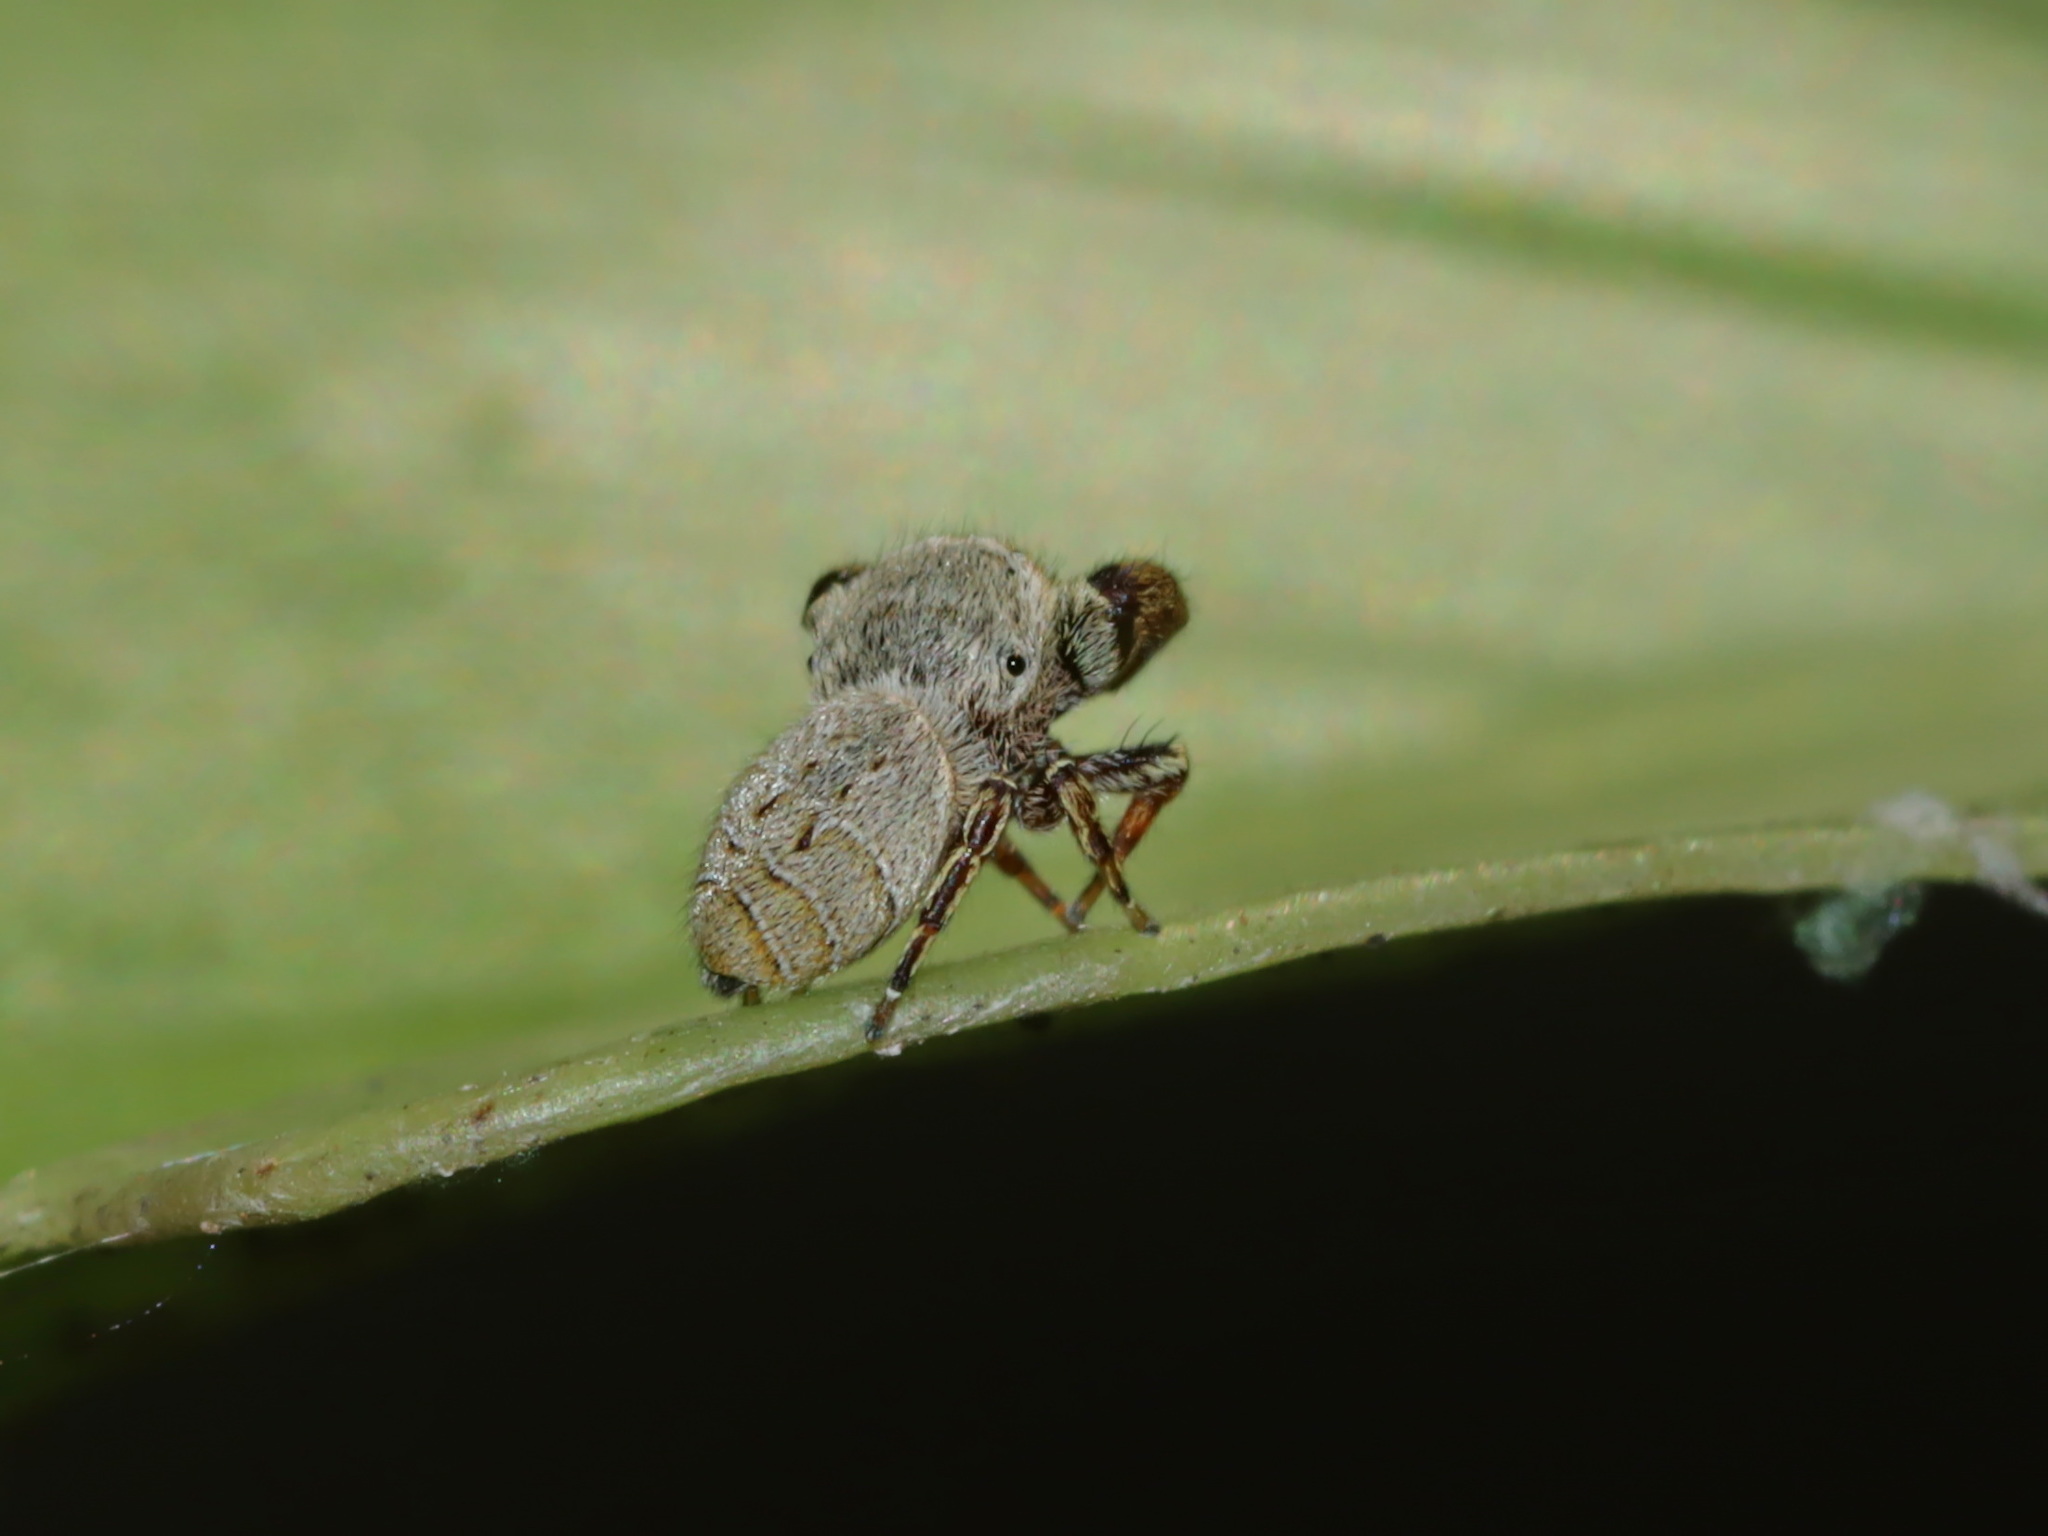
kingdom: Animalia
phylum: Arthropoda
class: Arachnida
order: Araneae
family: Salticidae
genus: Rhene
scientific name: Rhene flavigera
